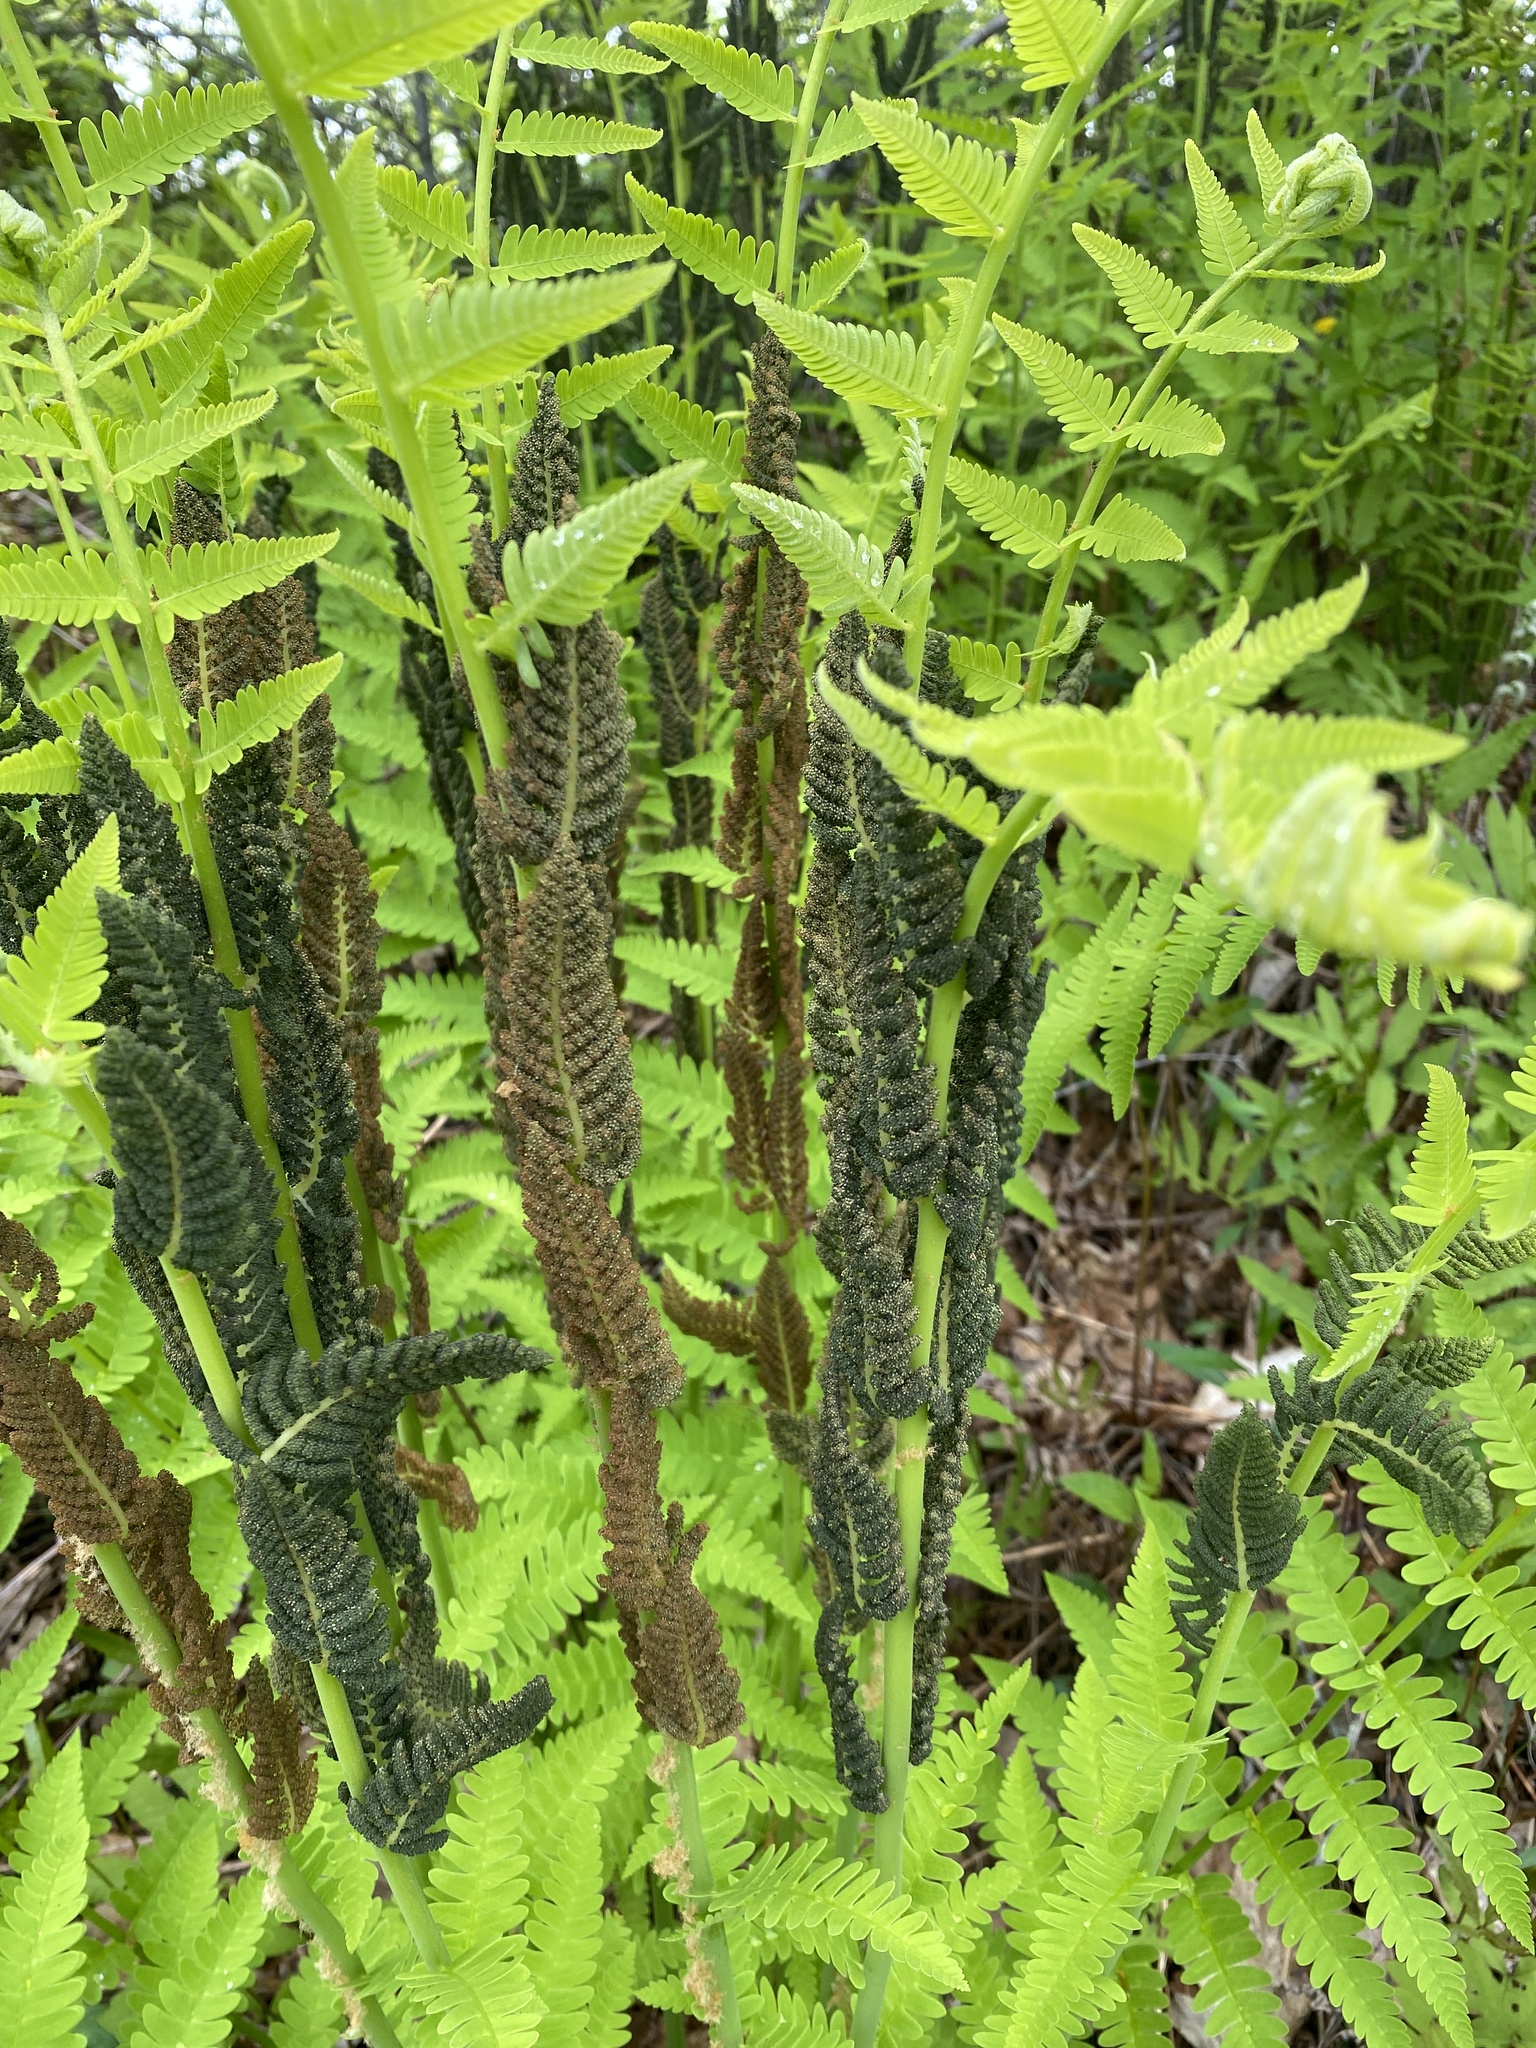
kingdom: Plantae
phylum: Tracheophyta
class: Polypodiopsida
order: Osmundales
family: Osmundaceae
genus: Claytosmunda
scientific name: Claytosmunda claytoniana
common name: Clayton's fern
